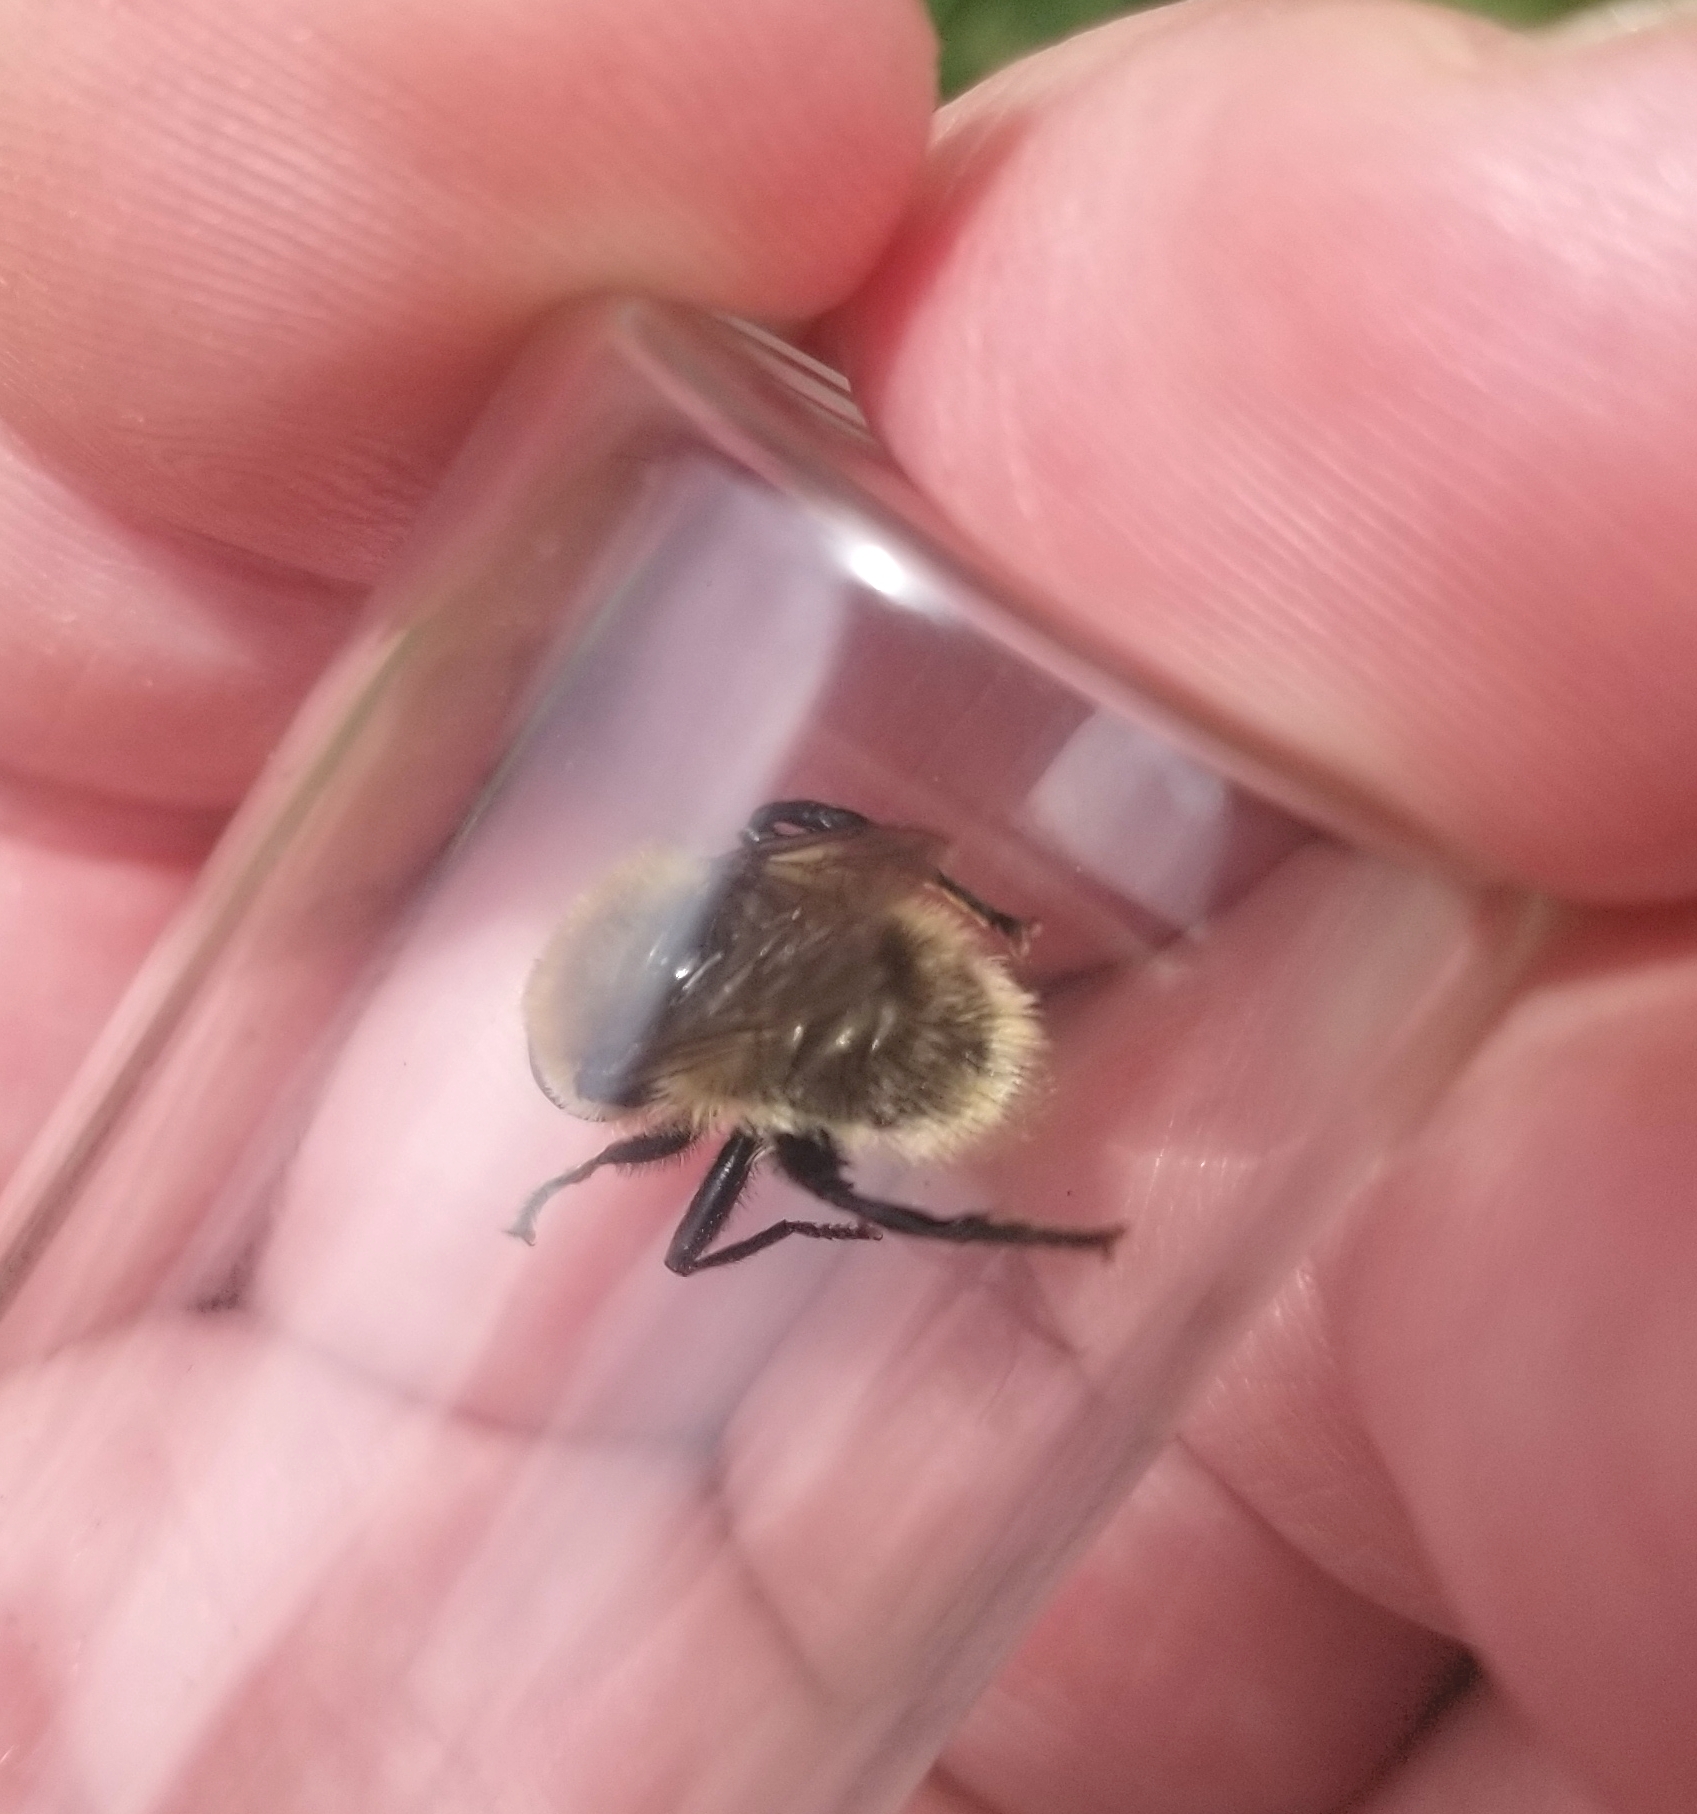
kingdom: Animalia
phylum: Arthropoda
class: Insecta
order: Diptera
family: Syrphidae
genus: Merodon
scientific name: Merodon equestris
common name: Greater bulb-fly
